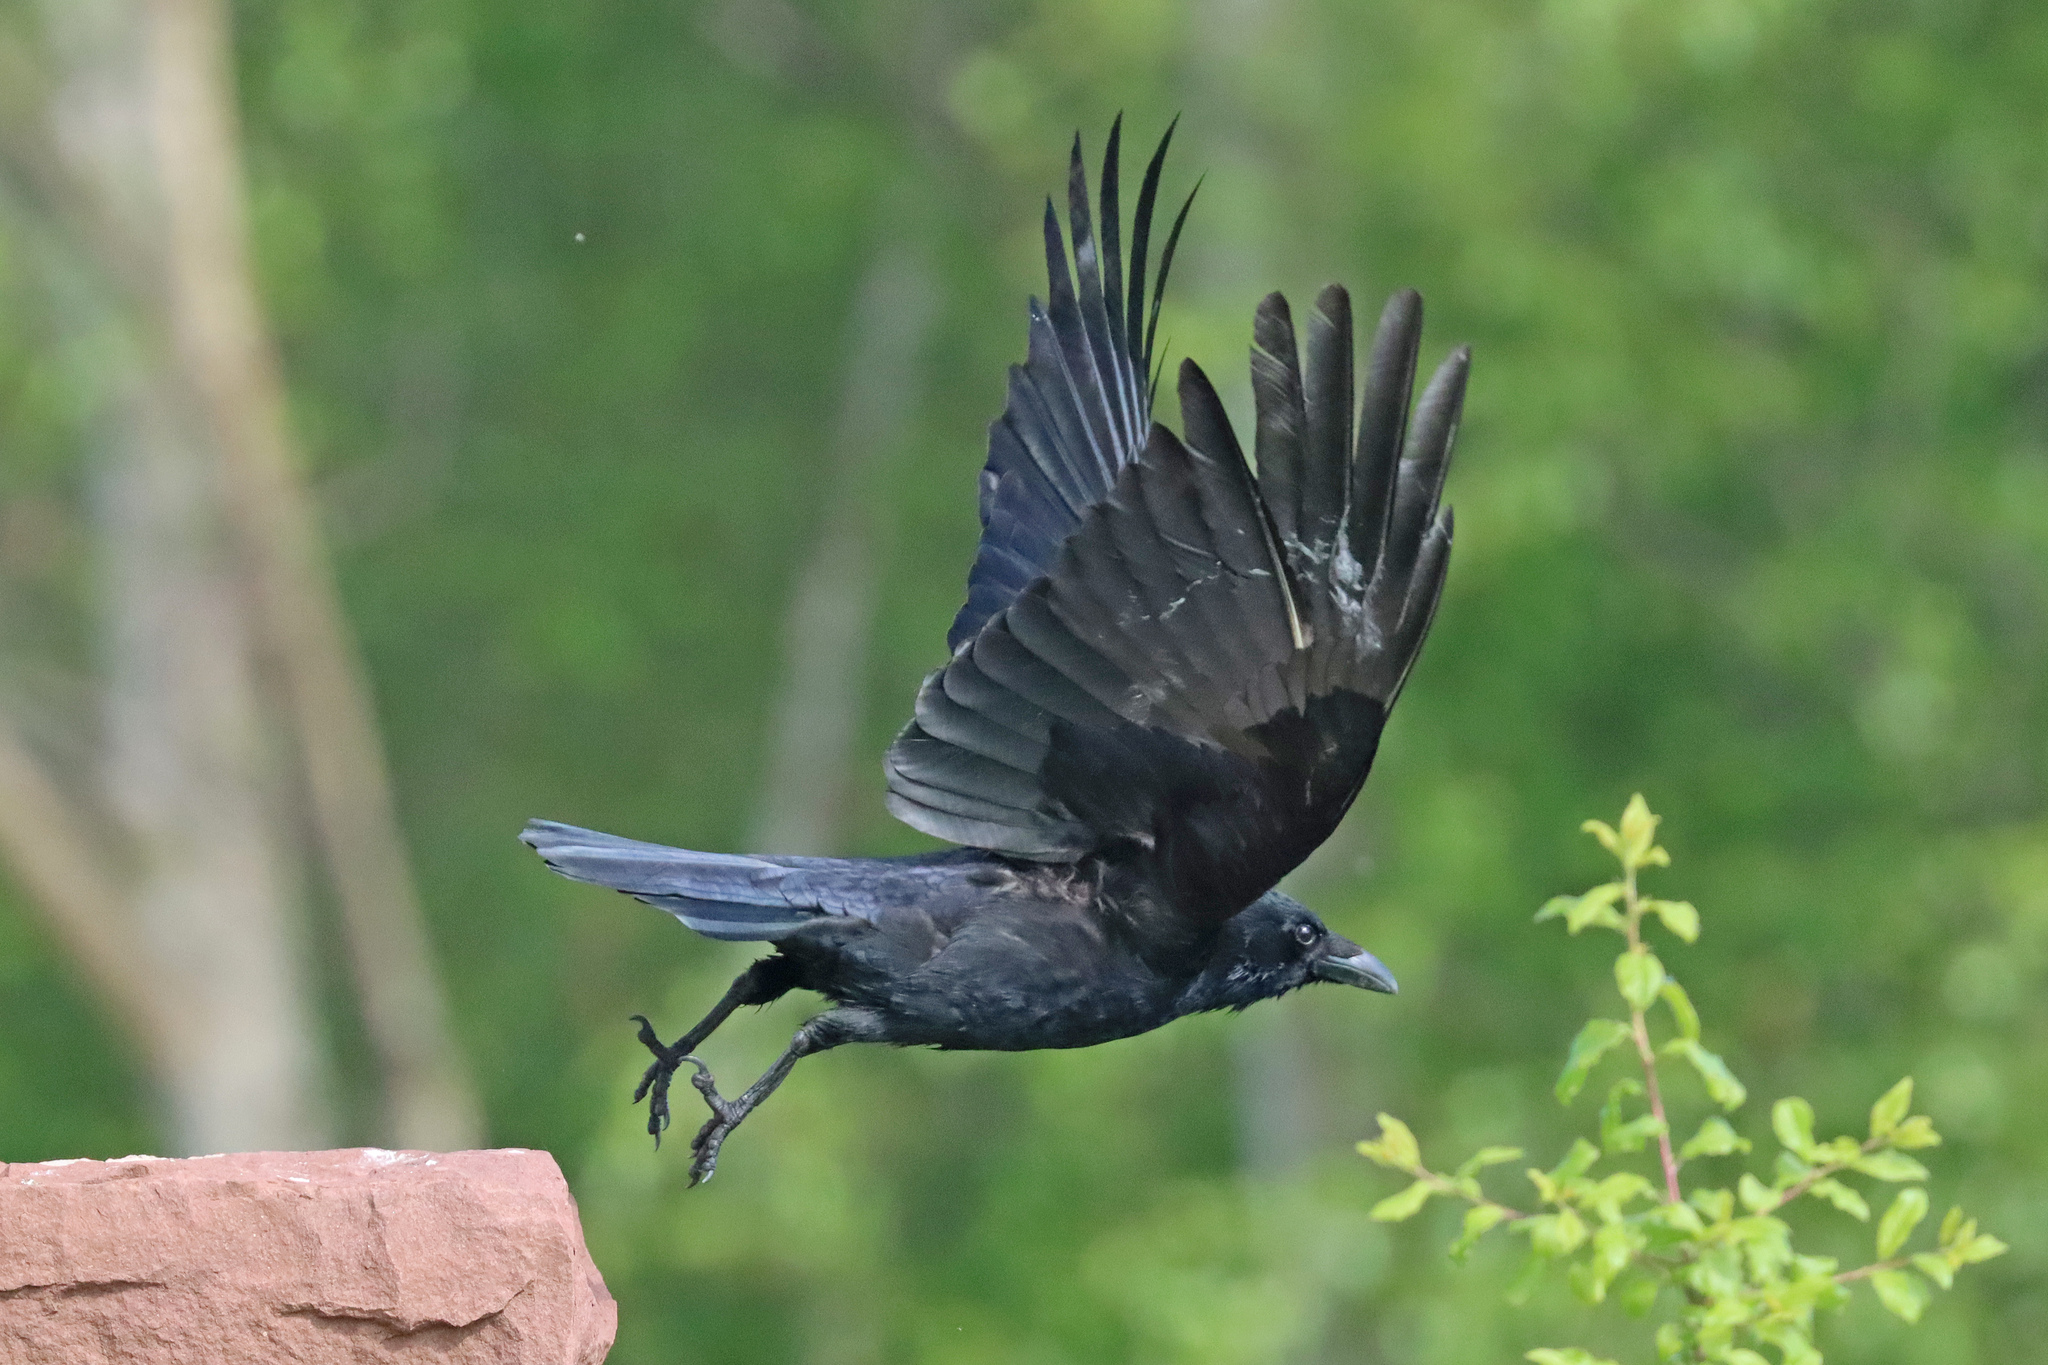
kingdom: Animalia
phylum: Chordata
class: Aves
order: Passeriformes
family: Corvidae
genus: Corvus
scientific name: Corvus corax
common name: Common raven
